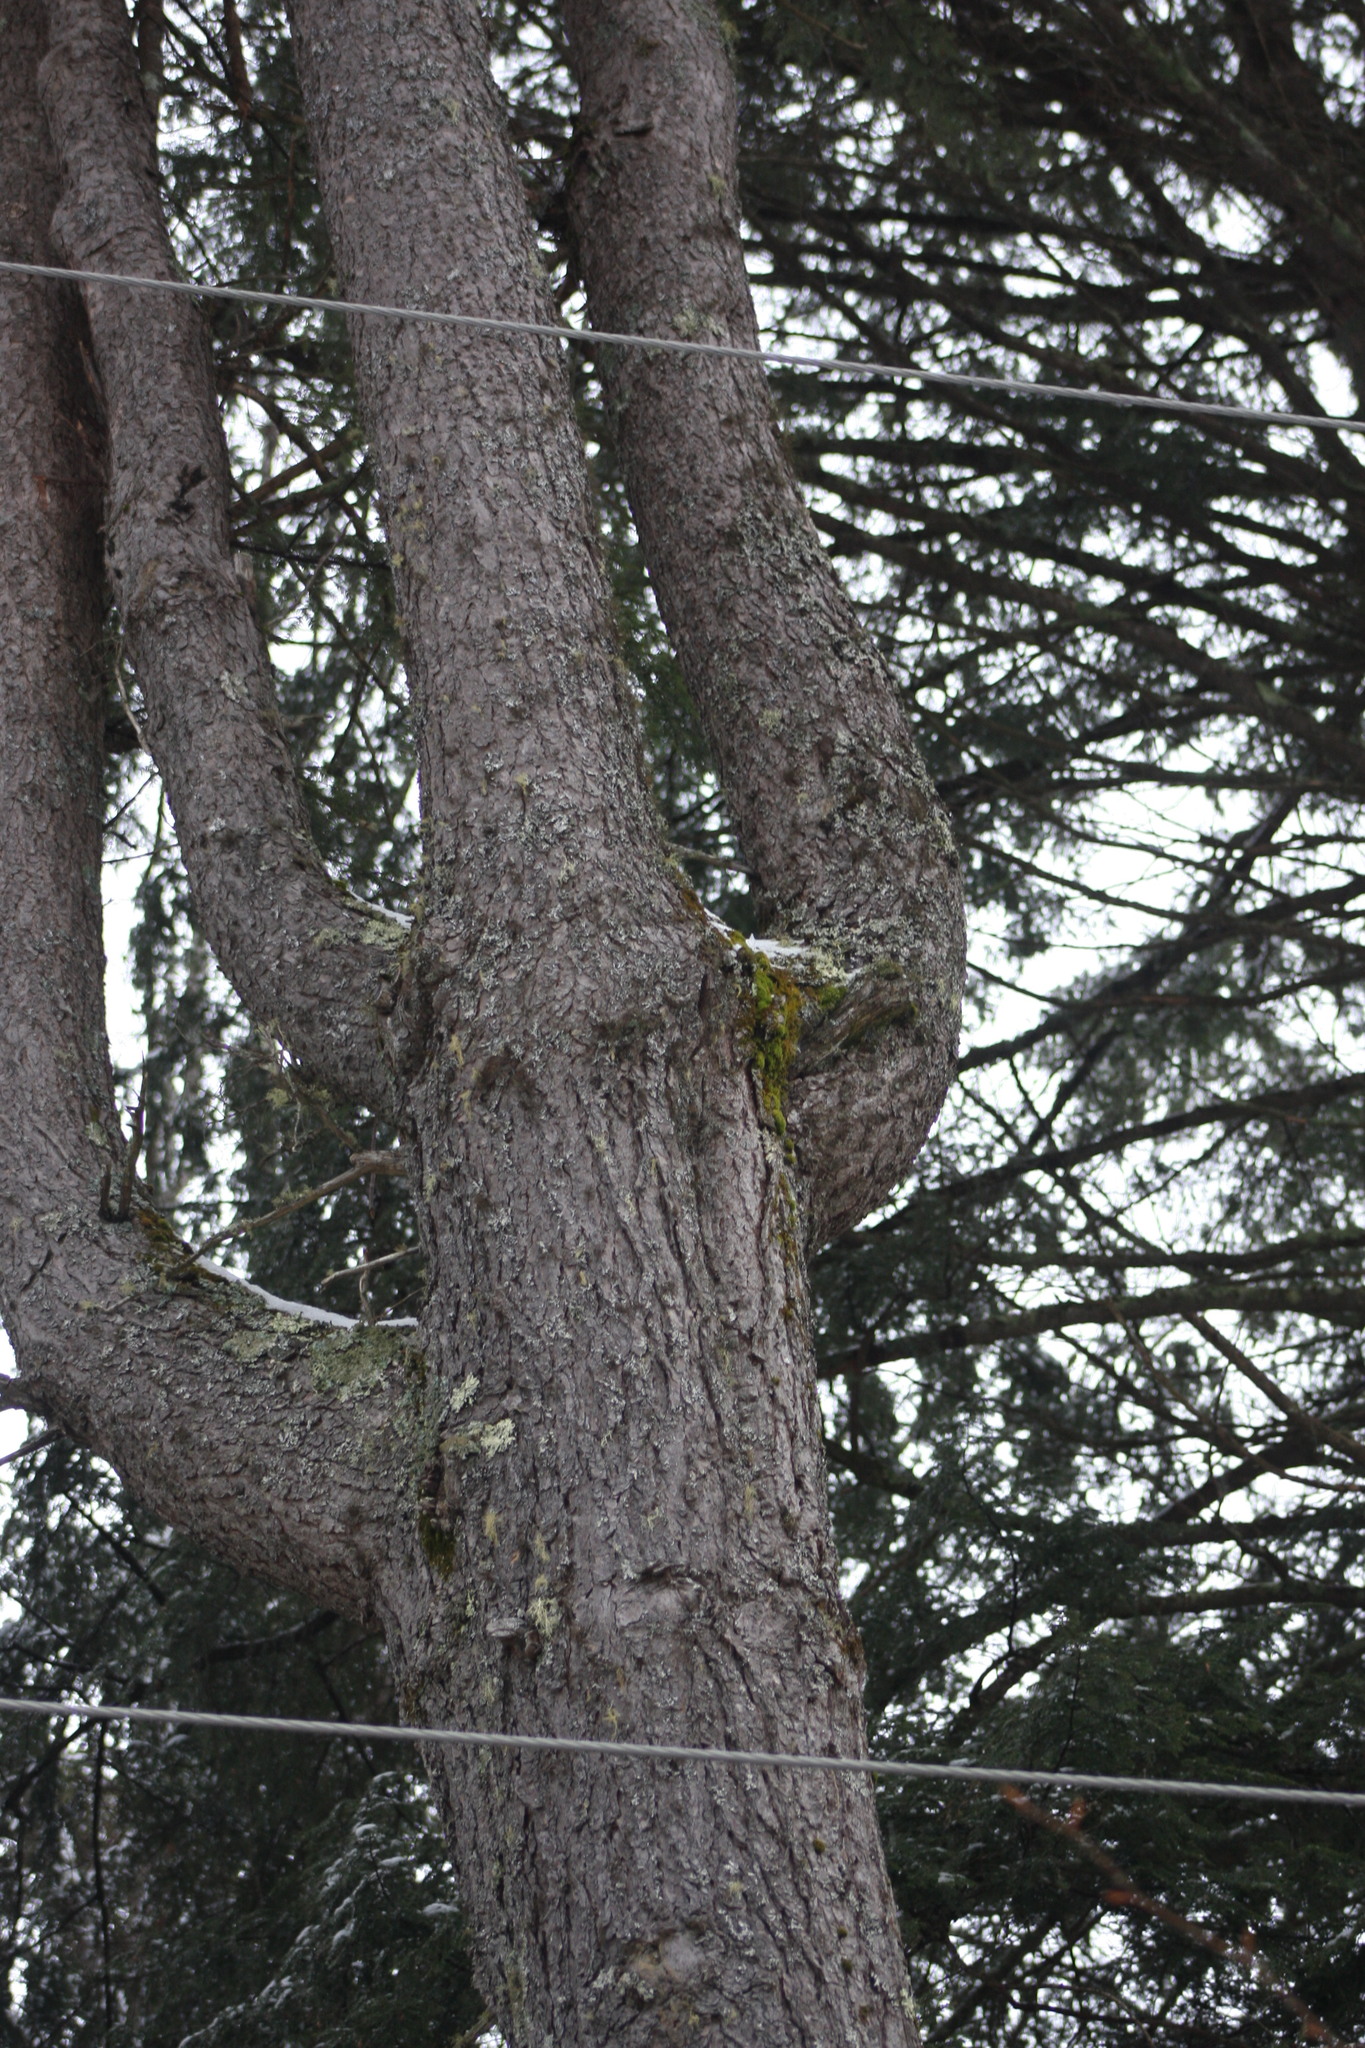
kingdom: Plantae
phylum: Tracheophyta
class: Pinopsida
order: Pinales
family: Pinaceae
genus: Tsuga
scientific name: Tsuga canadensis
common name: Eastern hemlock
